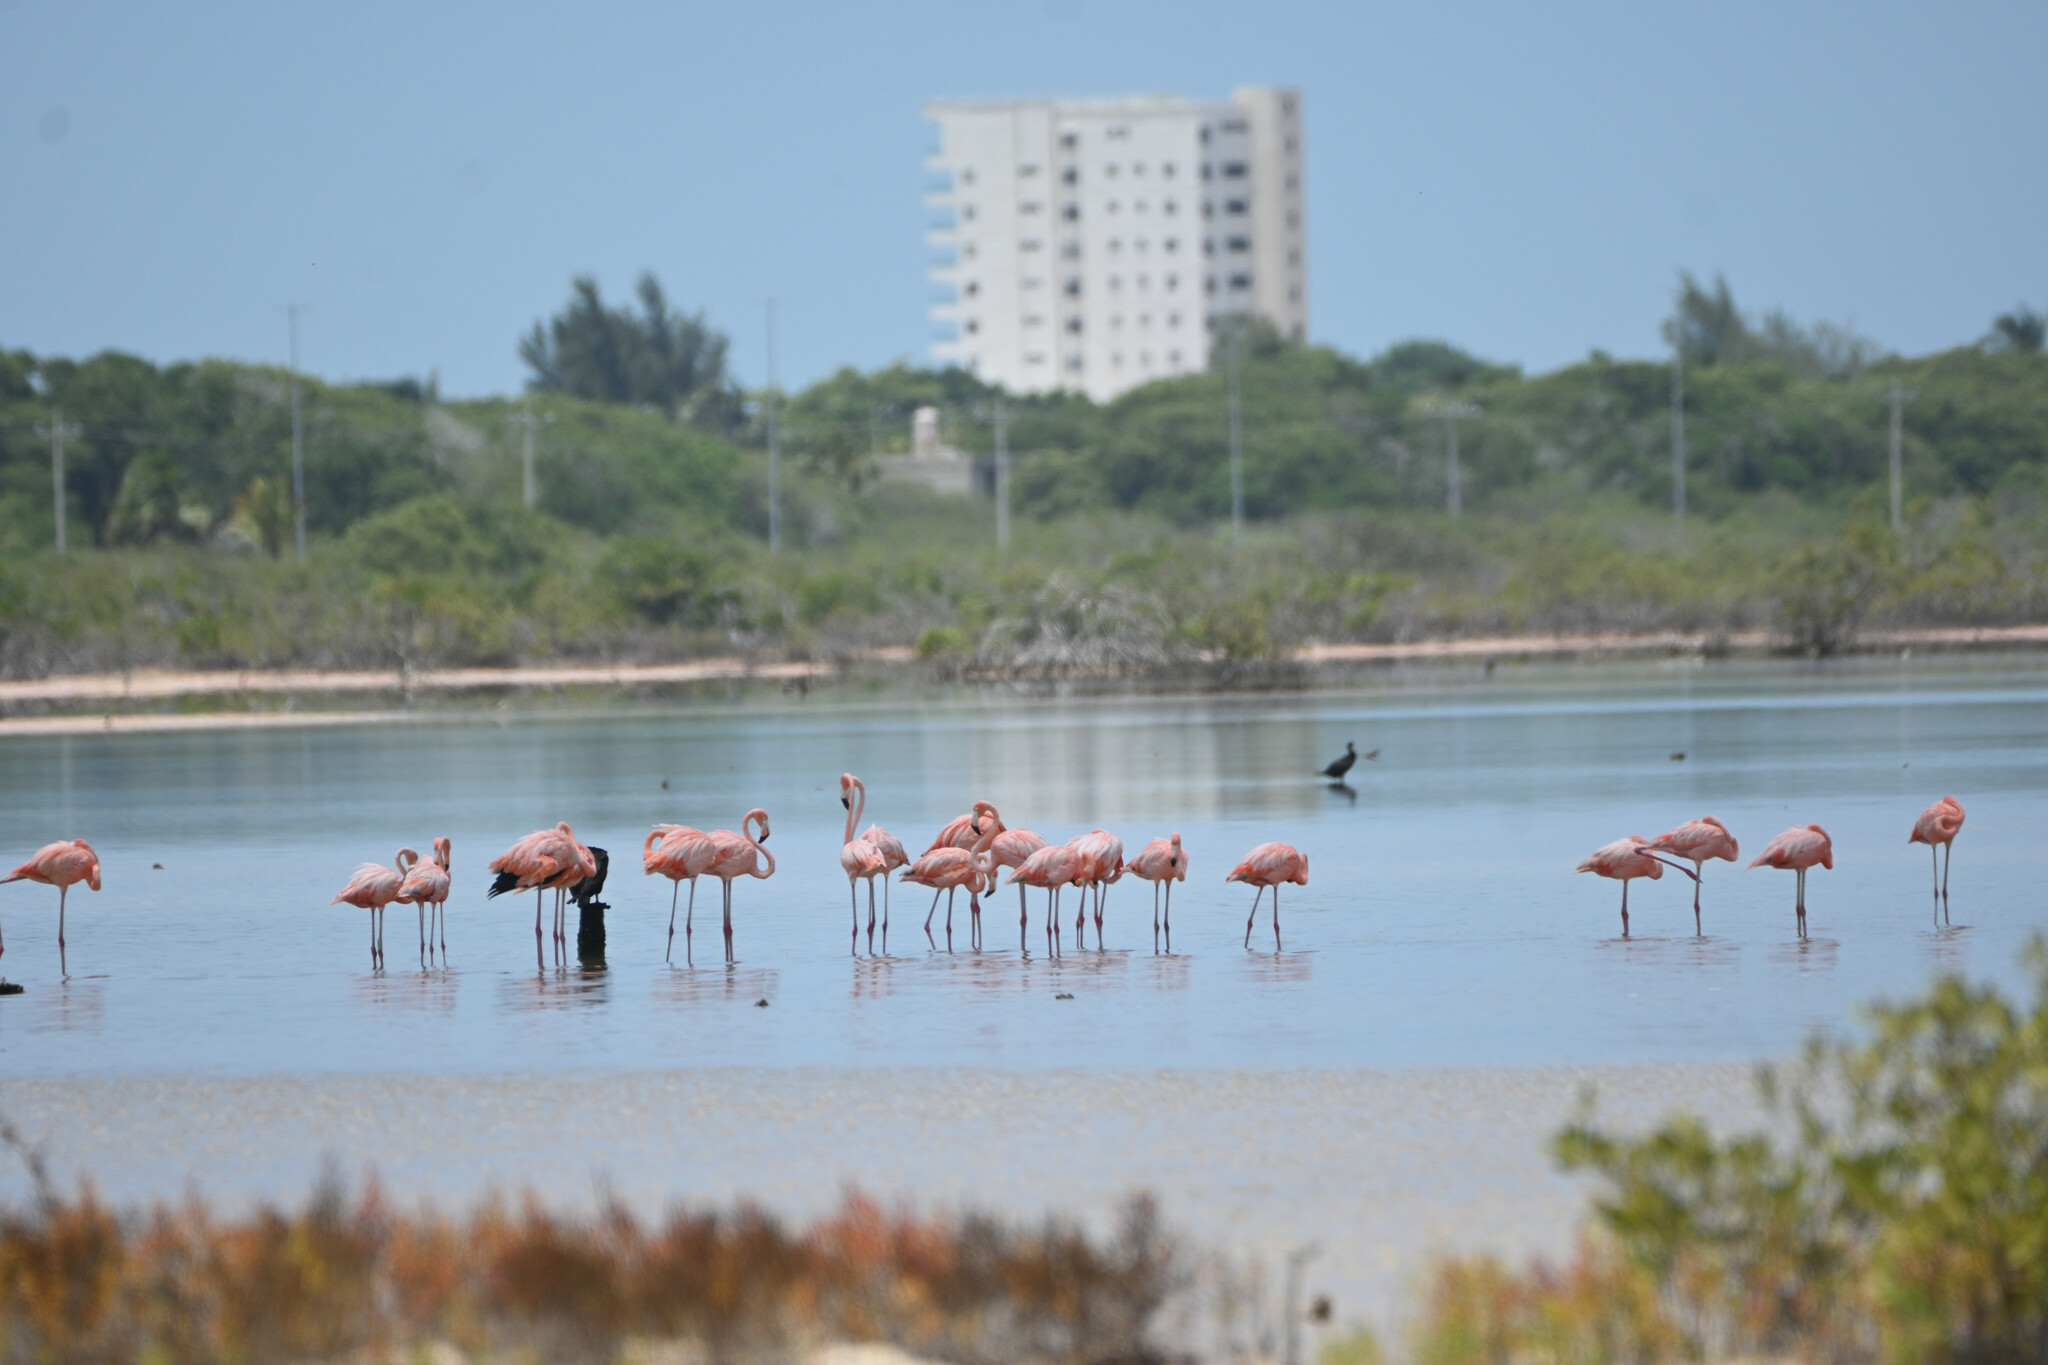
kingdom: Animalia
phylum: Chordata
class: Aves
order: Phoenicopteriformes
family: Phoenicopteridae
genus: Phoenicopterus
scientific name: Phoenicopterus ruber
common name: American flamingo
